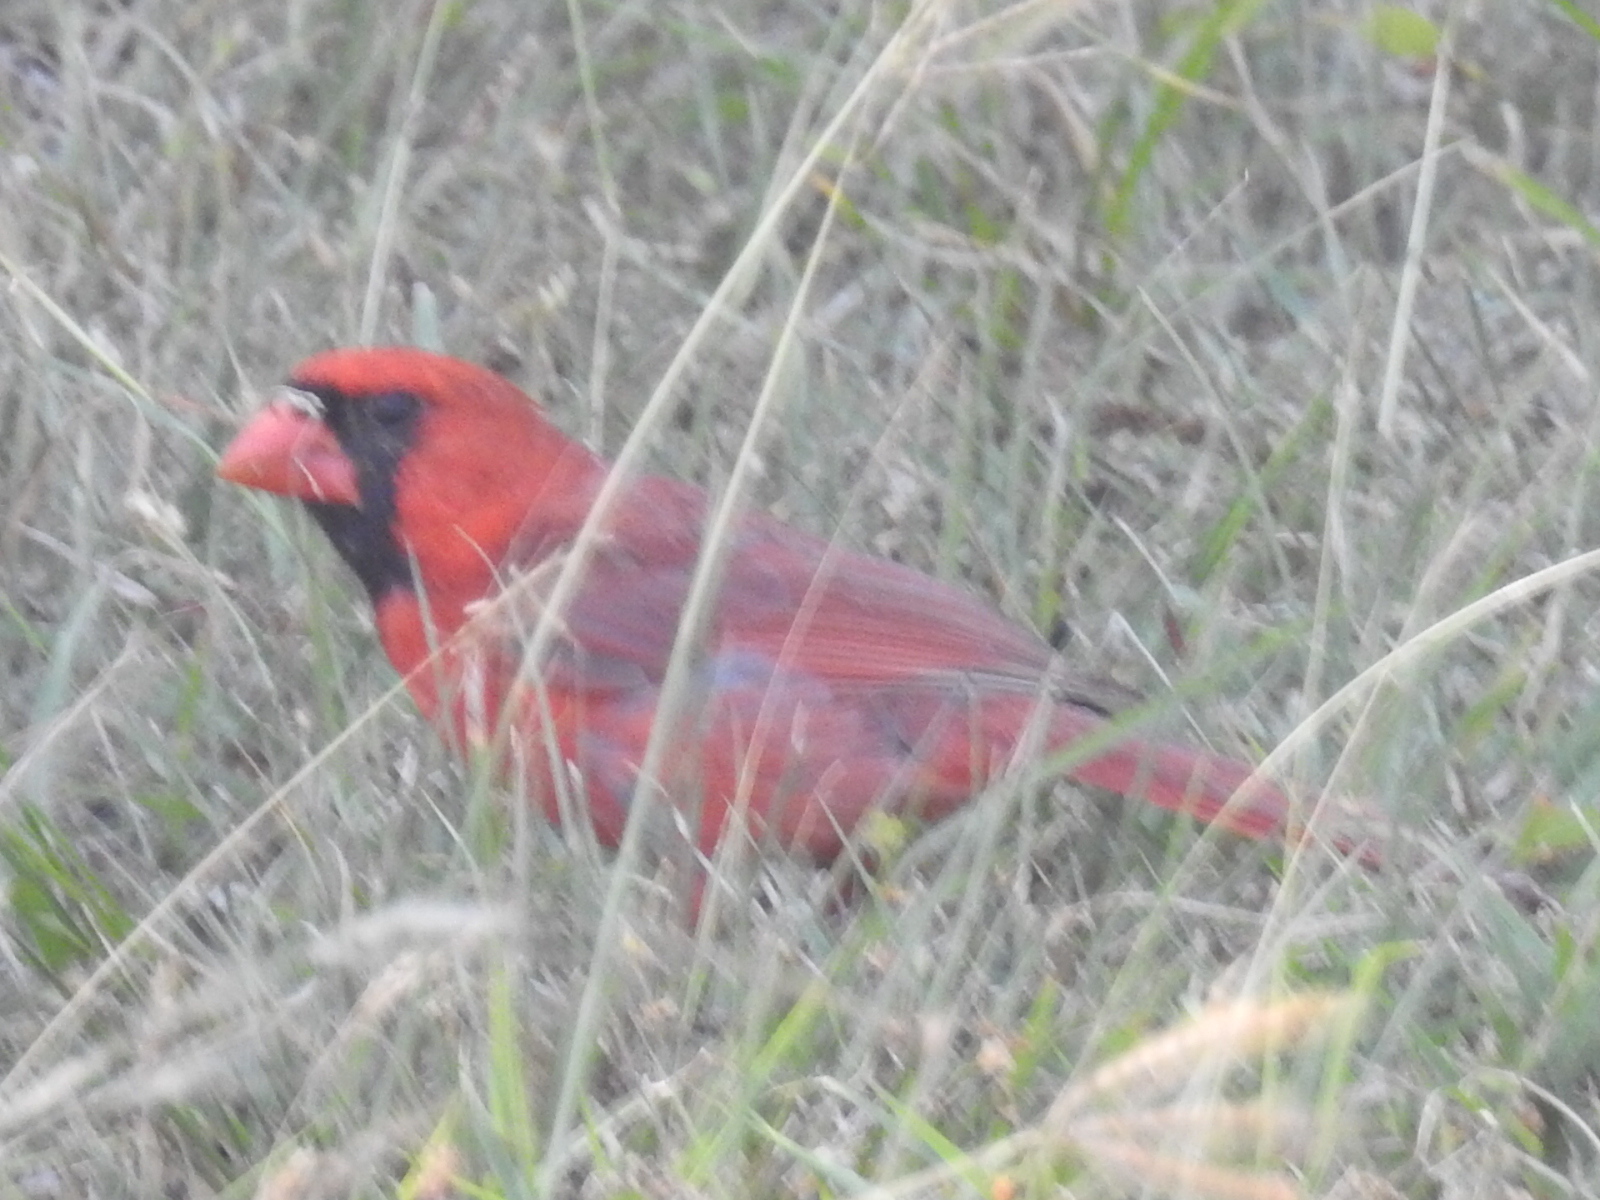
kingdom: Animalia
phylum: Chordata
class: Aves
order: Passeriformes
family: Cardinalidae
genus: Cardinalis
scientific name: Cardinalis cardinalis
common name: Northern cardinal
